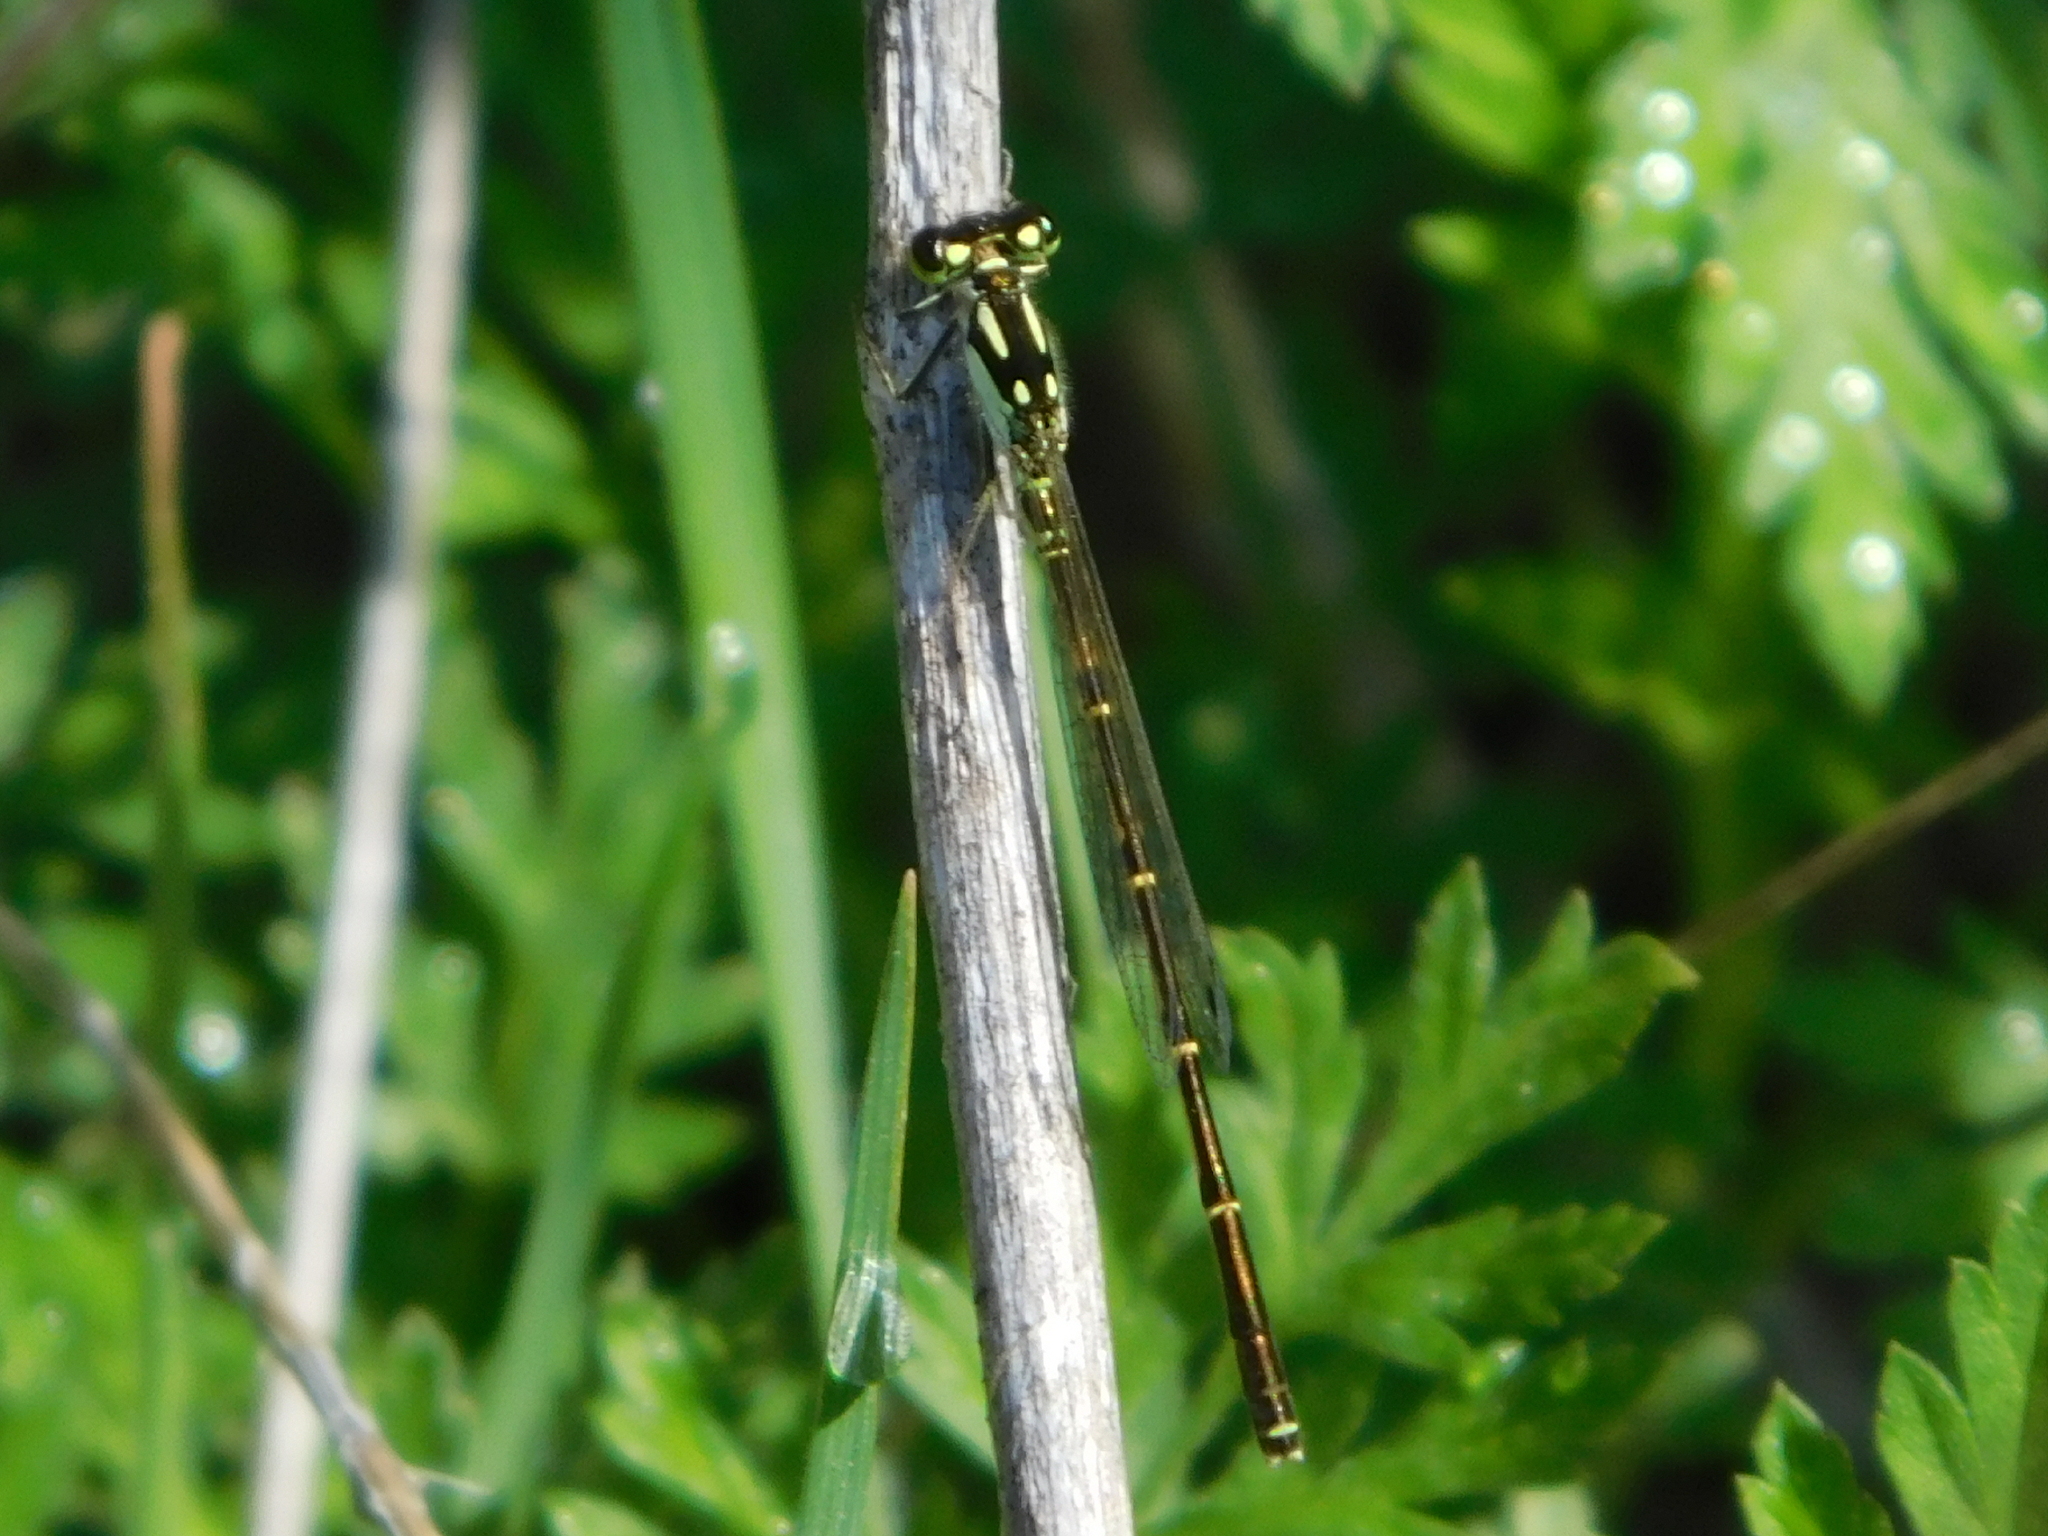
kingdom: Animalia
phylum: Arthropoda
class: Insecta
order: Odonata
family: Coenagrionidae
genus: Ischnura
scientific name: Ischnura posita
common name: Fragile forktail
